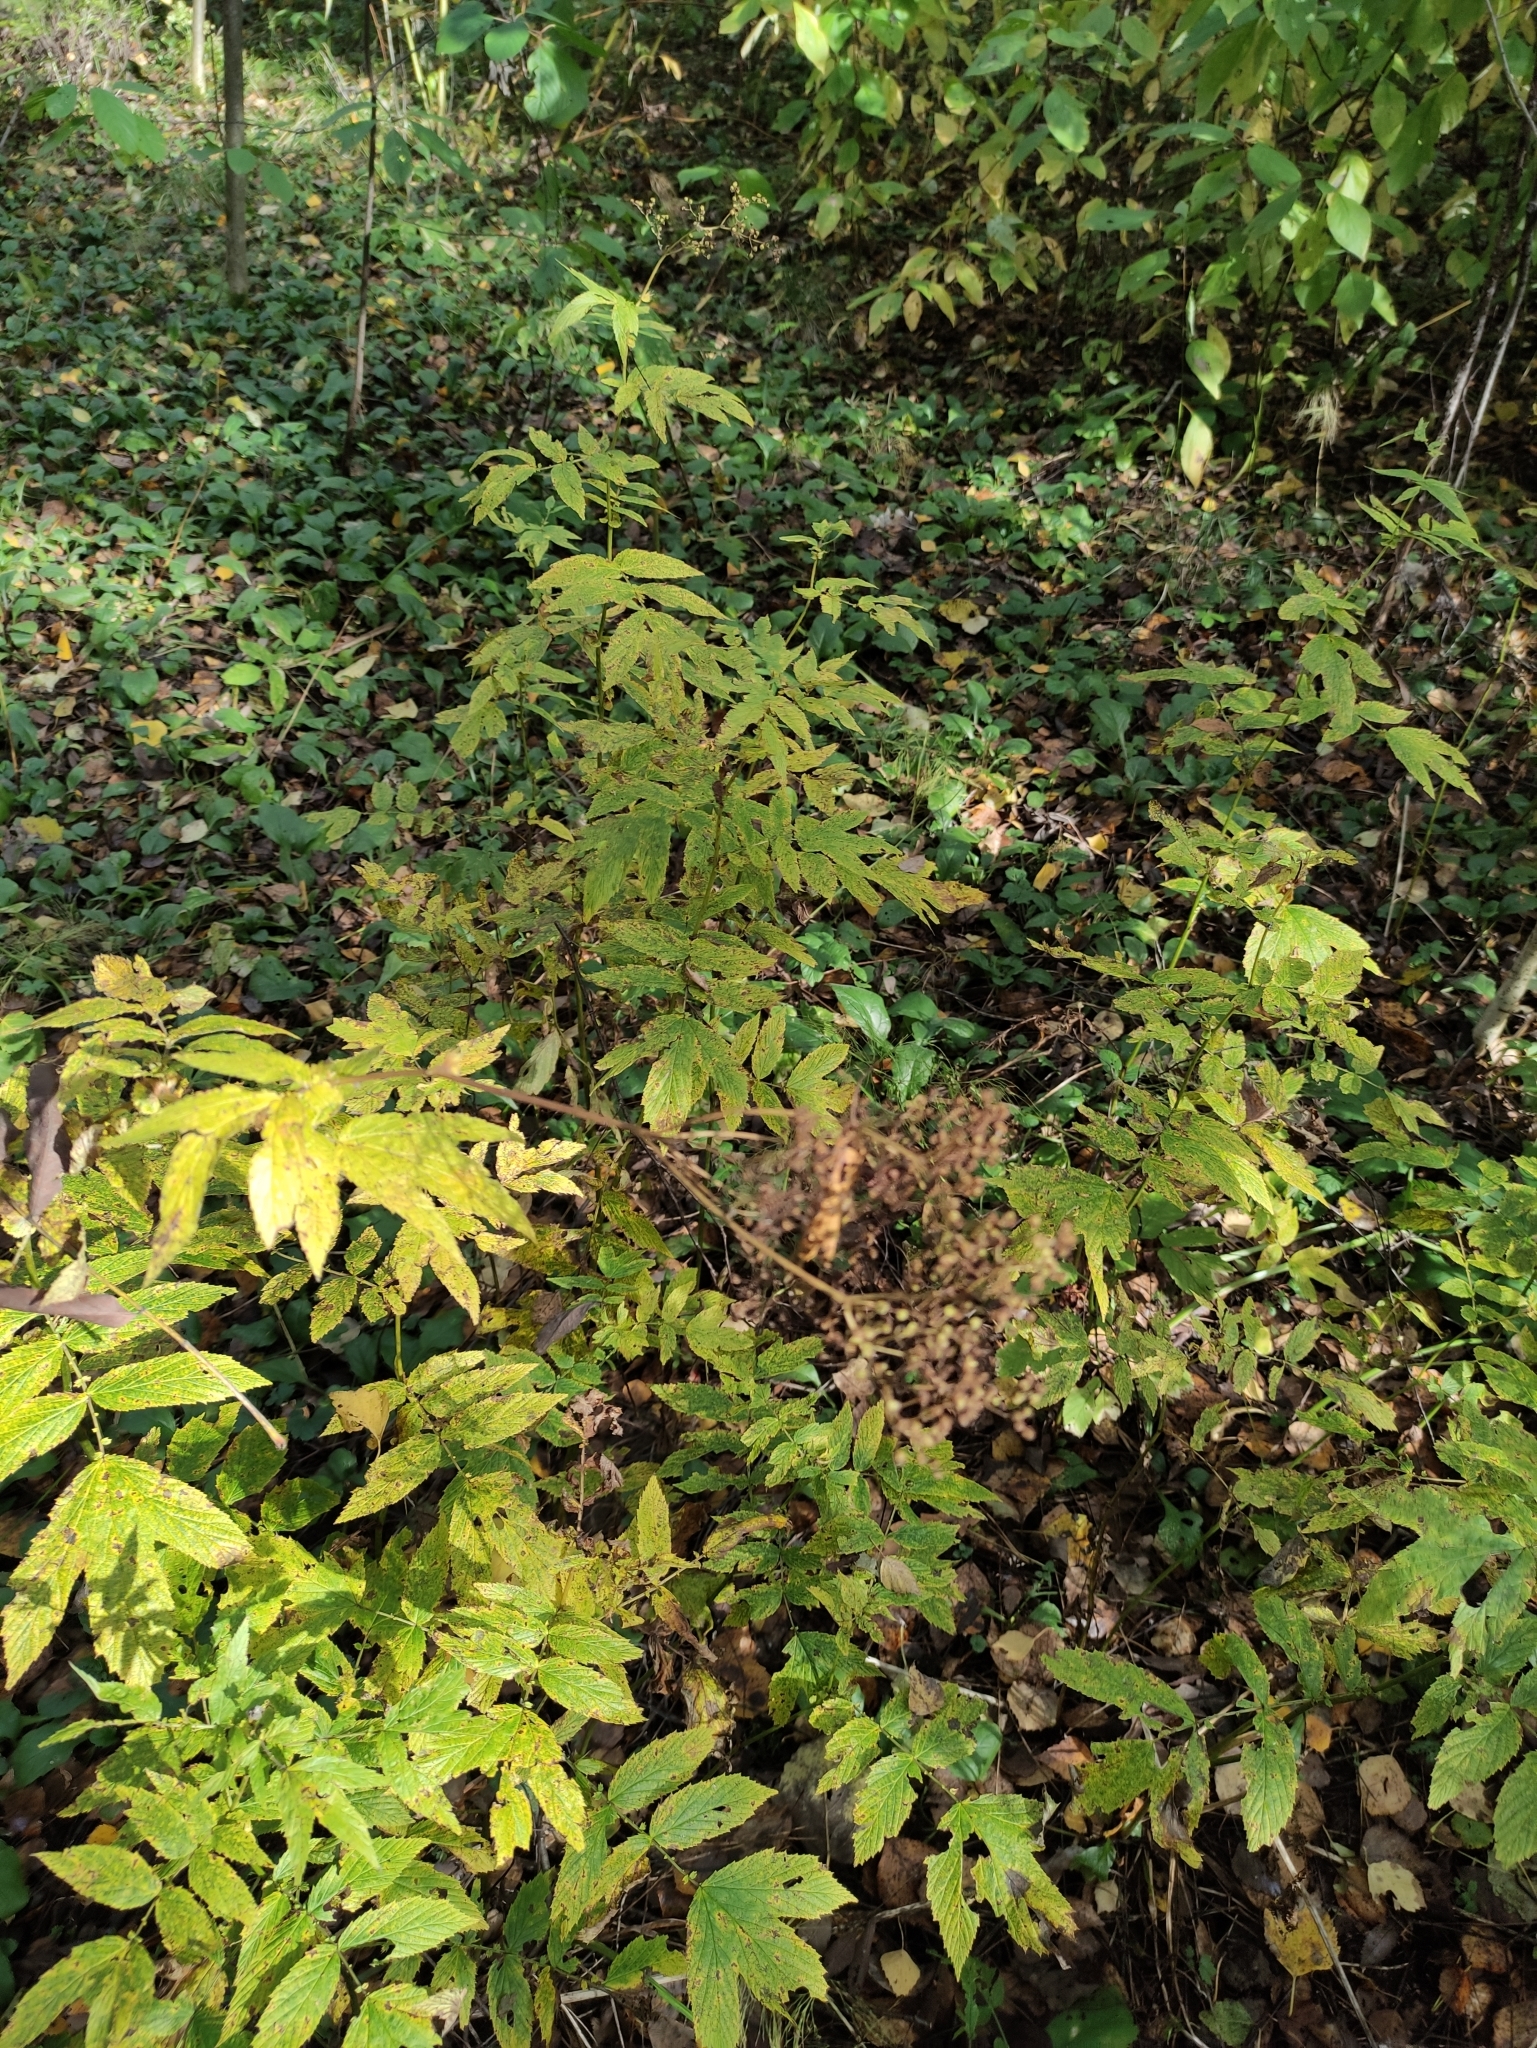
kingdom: Plantae
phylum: Tracheophyta
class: Magnoliopsida
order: Rosales
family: Rosaceae
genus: Filipendula
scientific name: Filipendula ulmaria
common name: Meadowsweet
